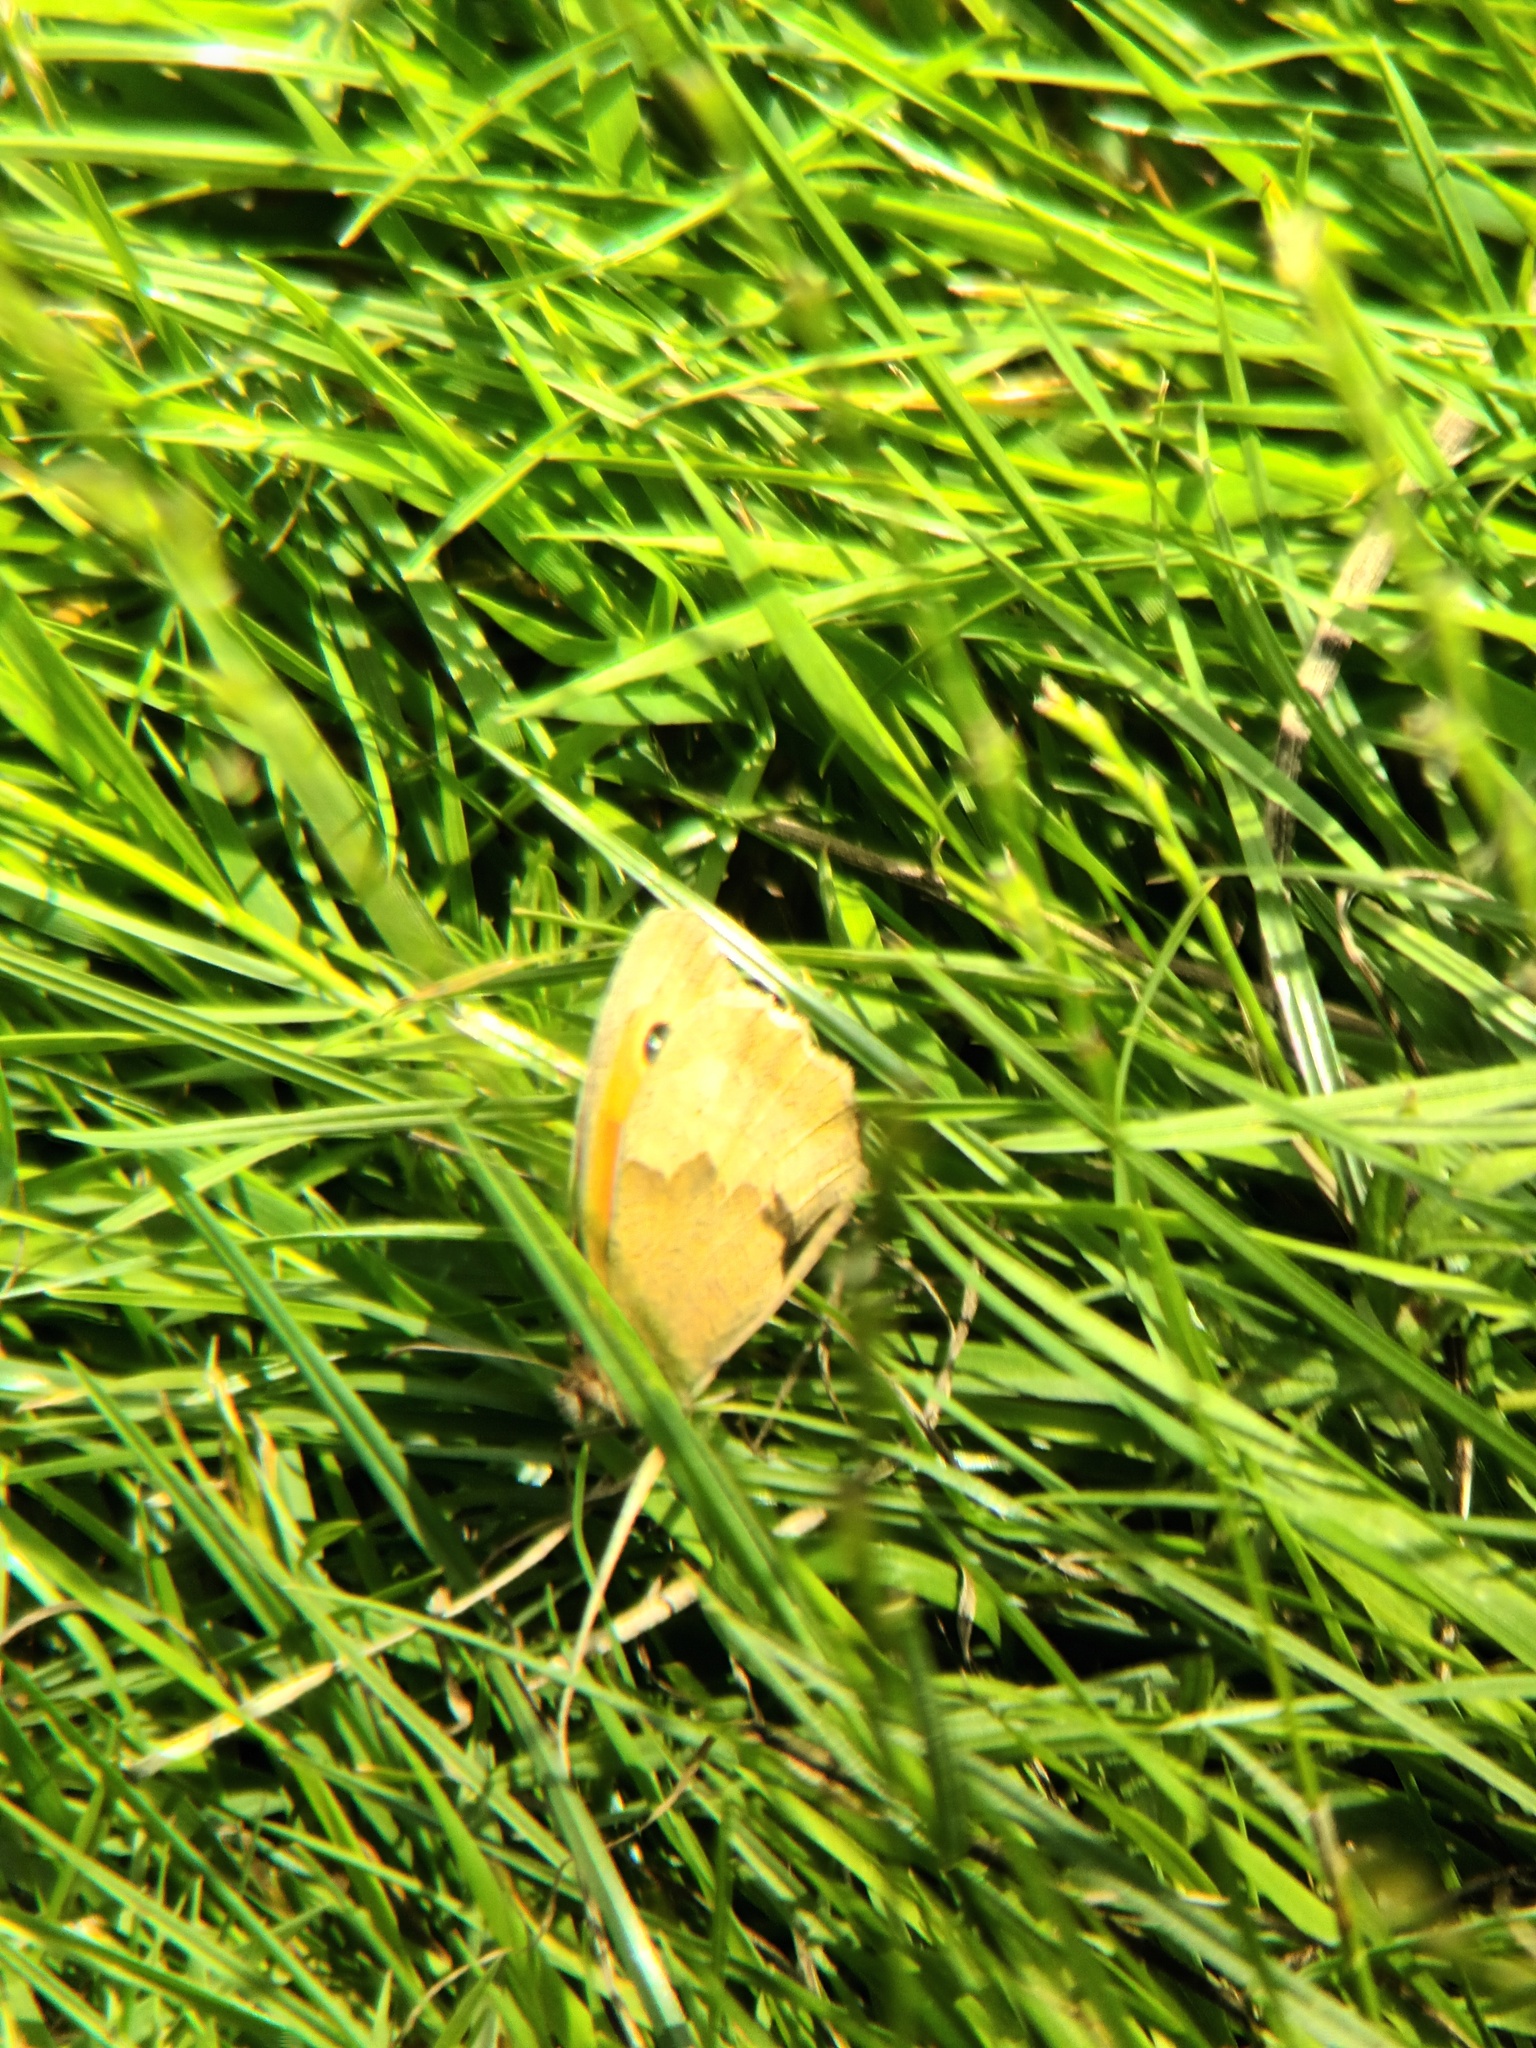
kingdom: Animalia
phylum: Arthropoda
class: Insecta
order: Lepidoptera
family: Nymphalidae
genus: Maniola
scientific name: Maniola jurtina
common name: Meadow brown
